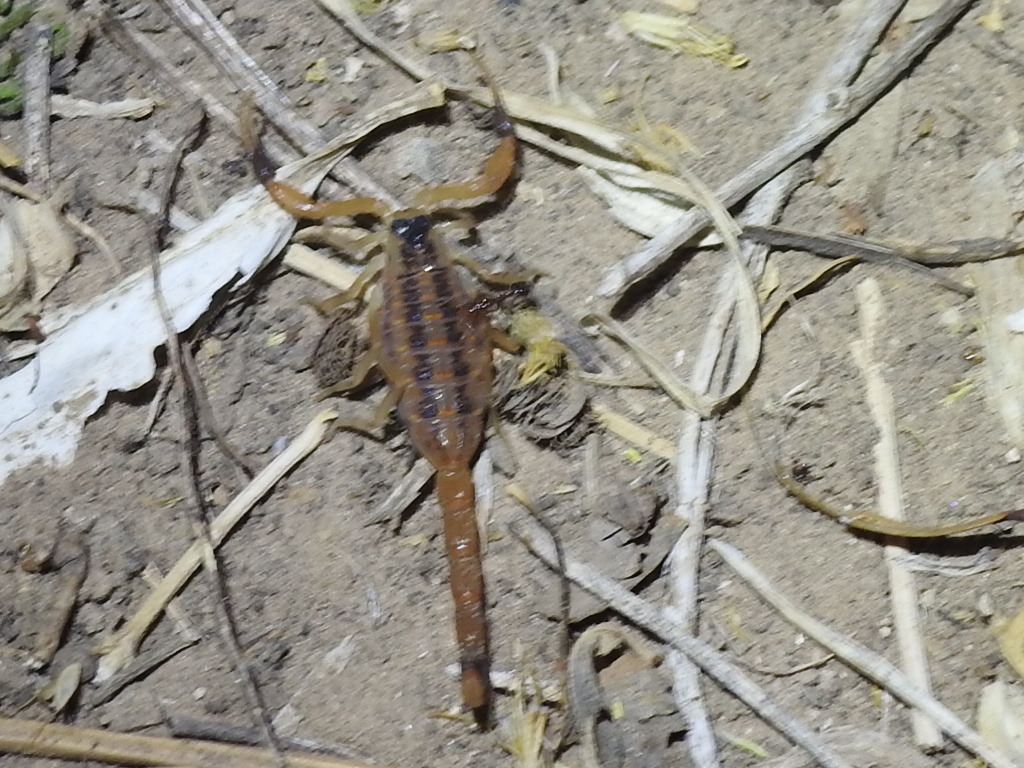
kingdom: Animalia
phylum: Arthropoda
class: Arachnida
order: Scorpiones
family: Buthidae
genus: Centruroides
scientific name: Centruroides vittatus
